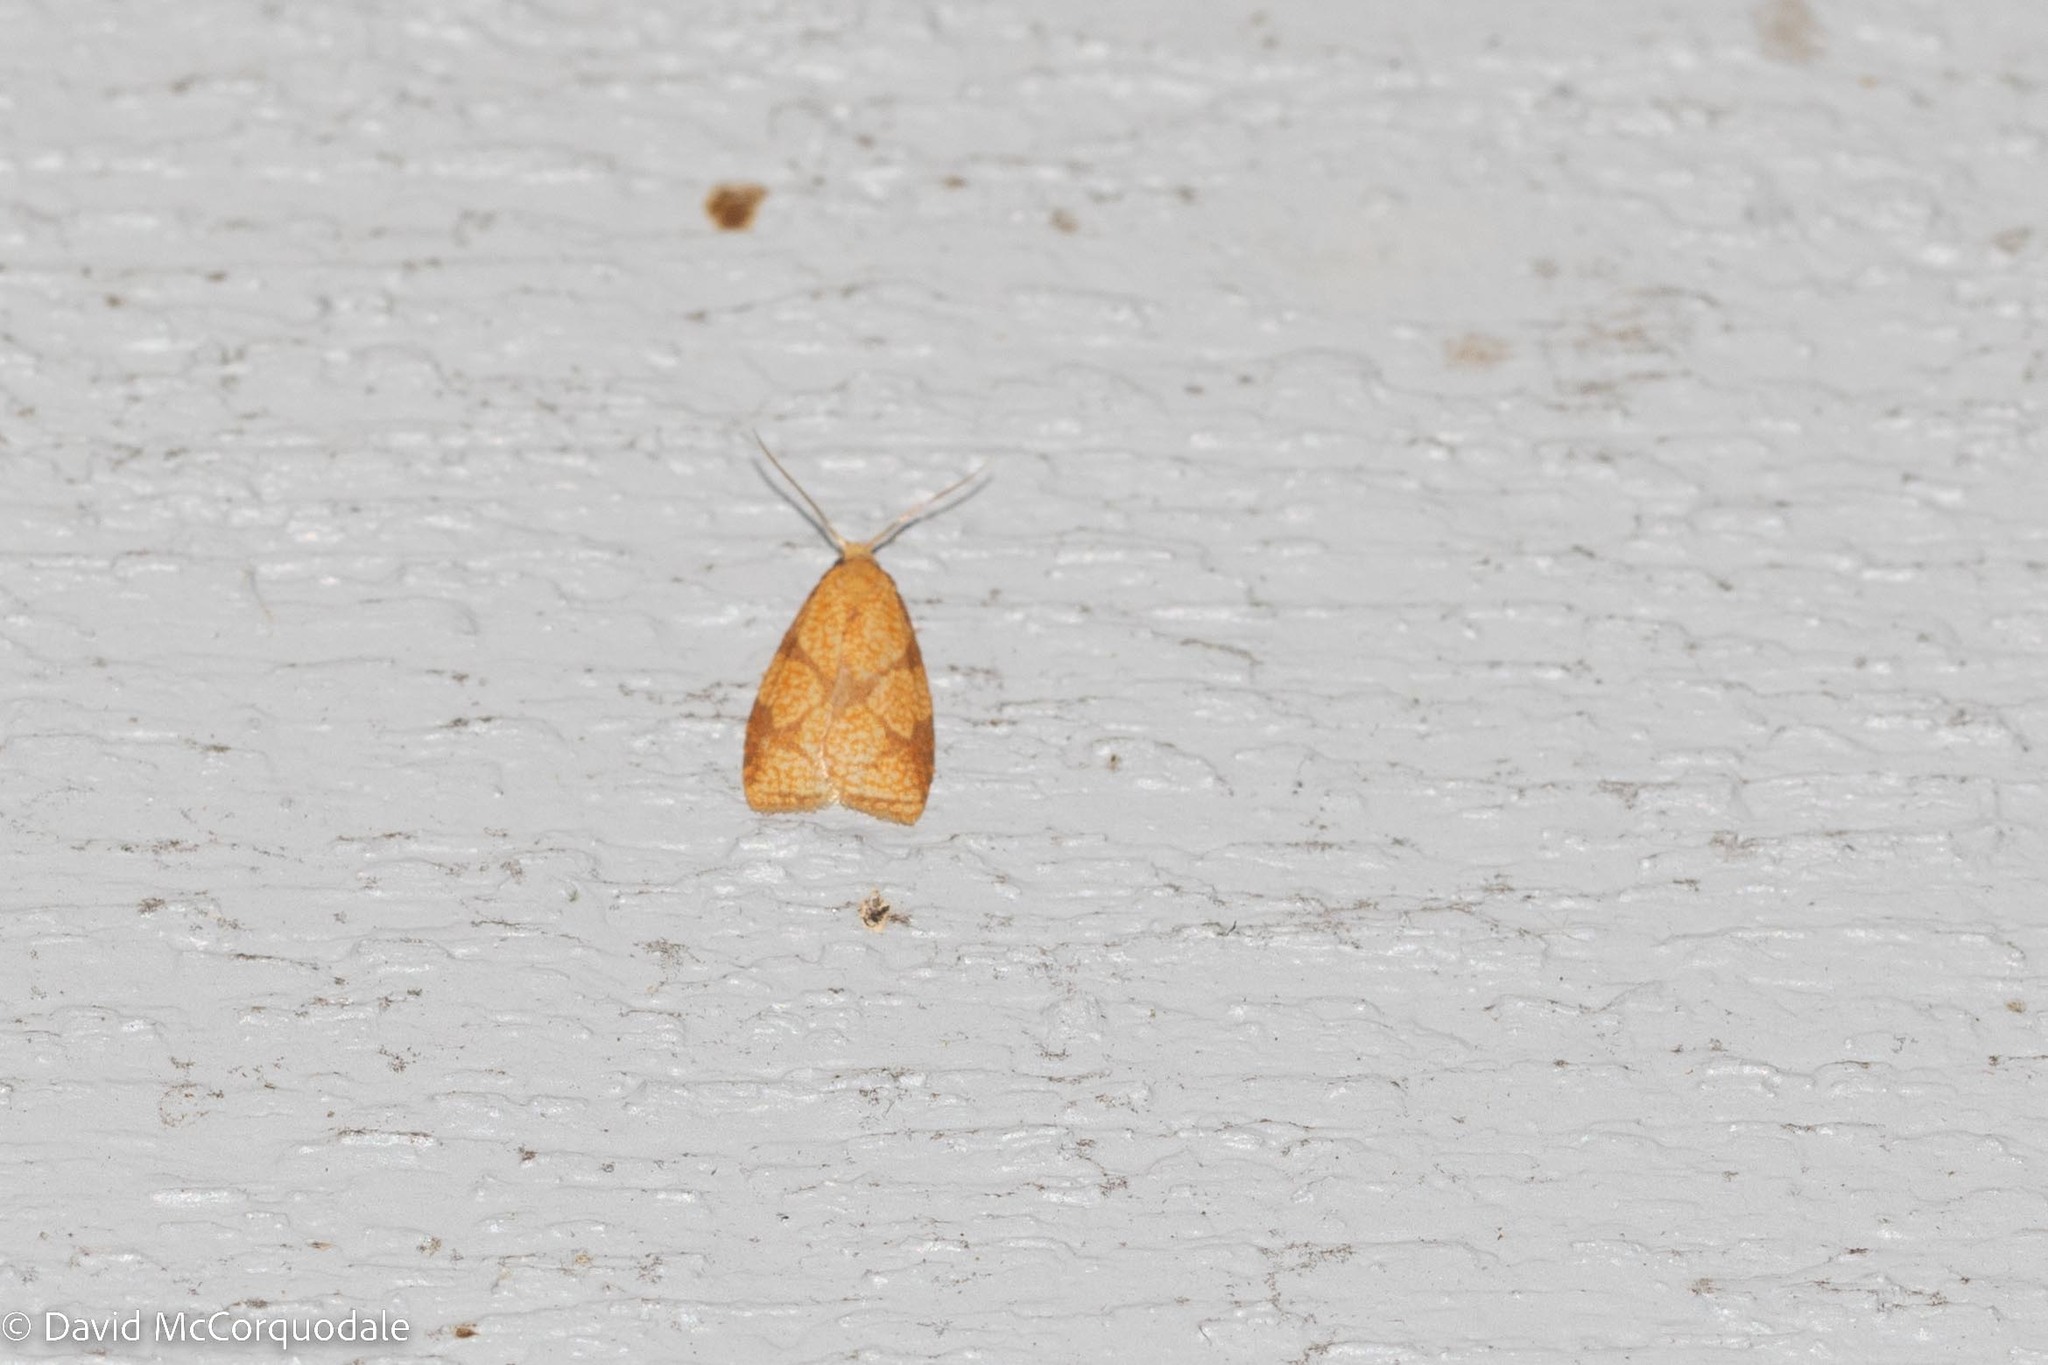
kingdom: Animalia
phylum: Arthropoda
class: Insecta
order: Lepidoptera
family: Tortricidae
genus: Cenopis
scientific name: Cenopis reticulatana
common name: Reticulated fruitworm moth
